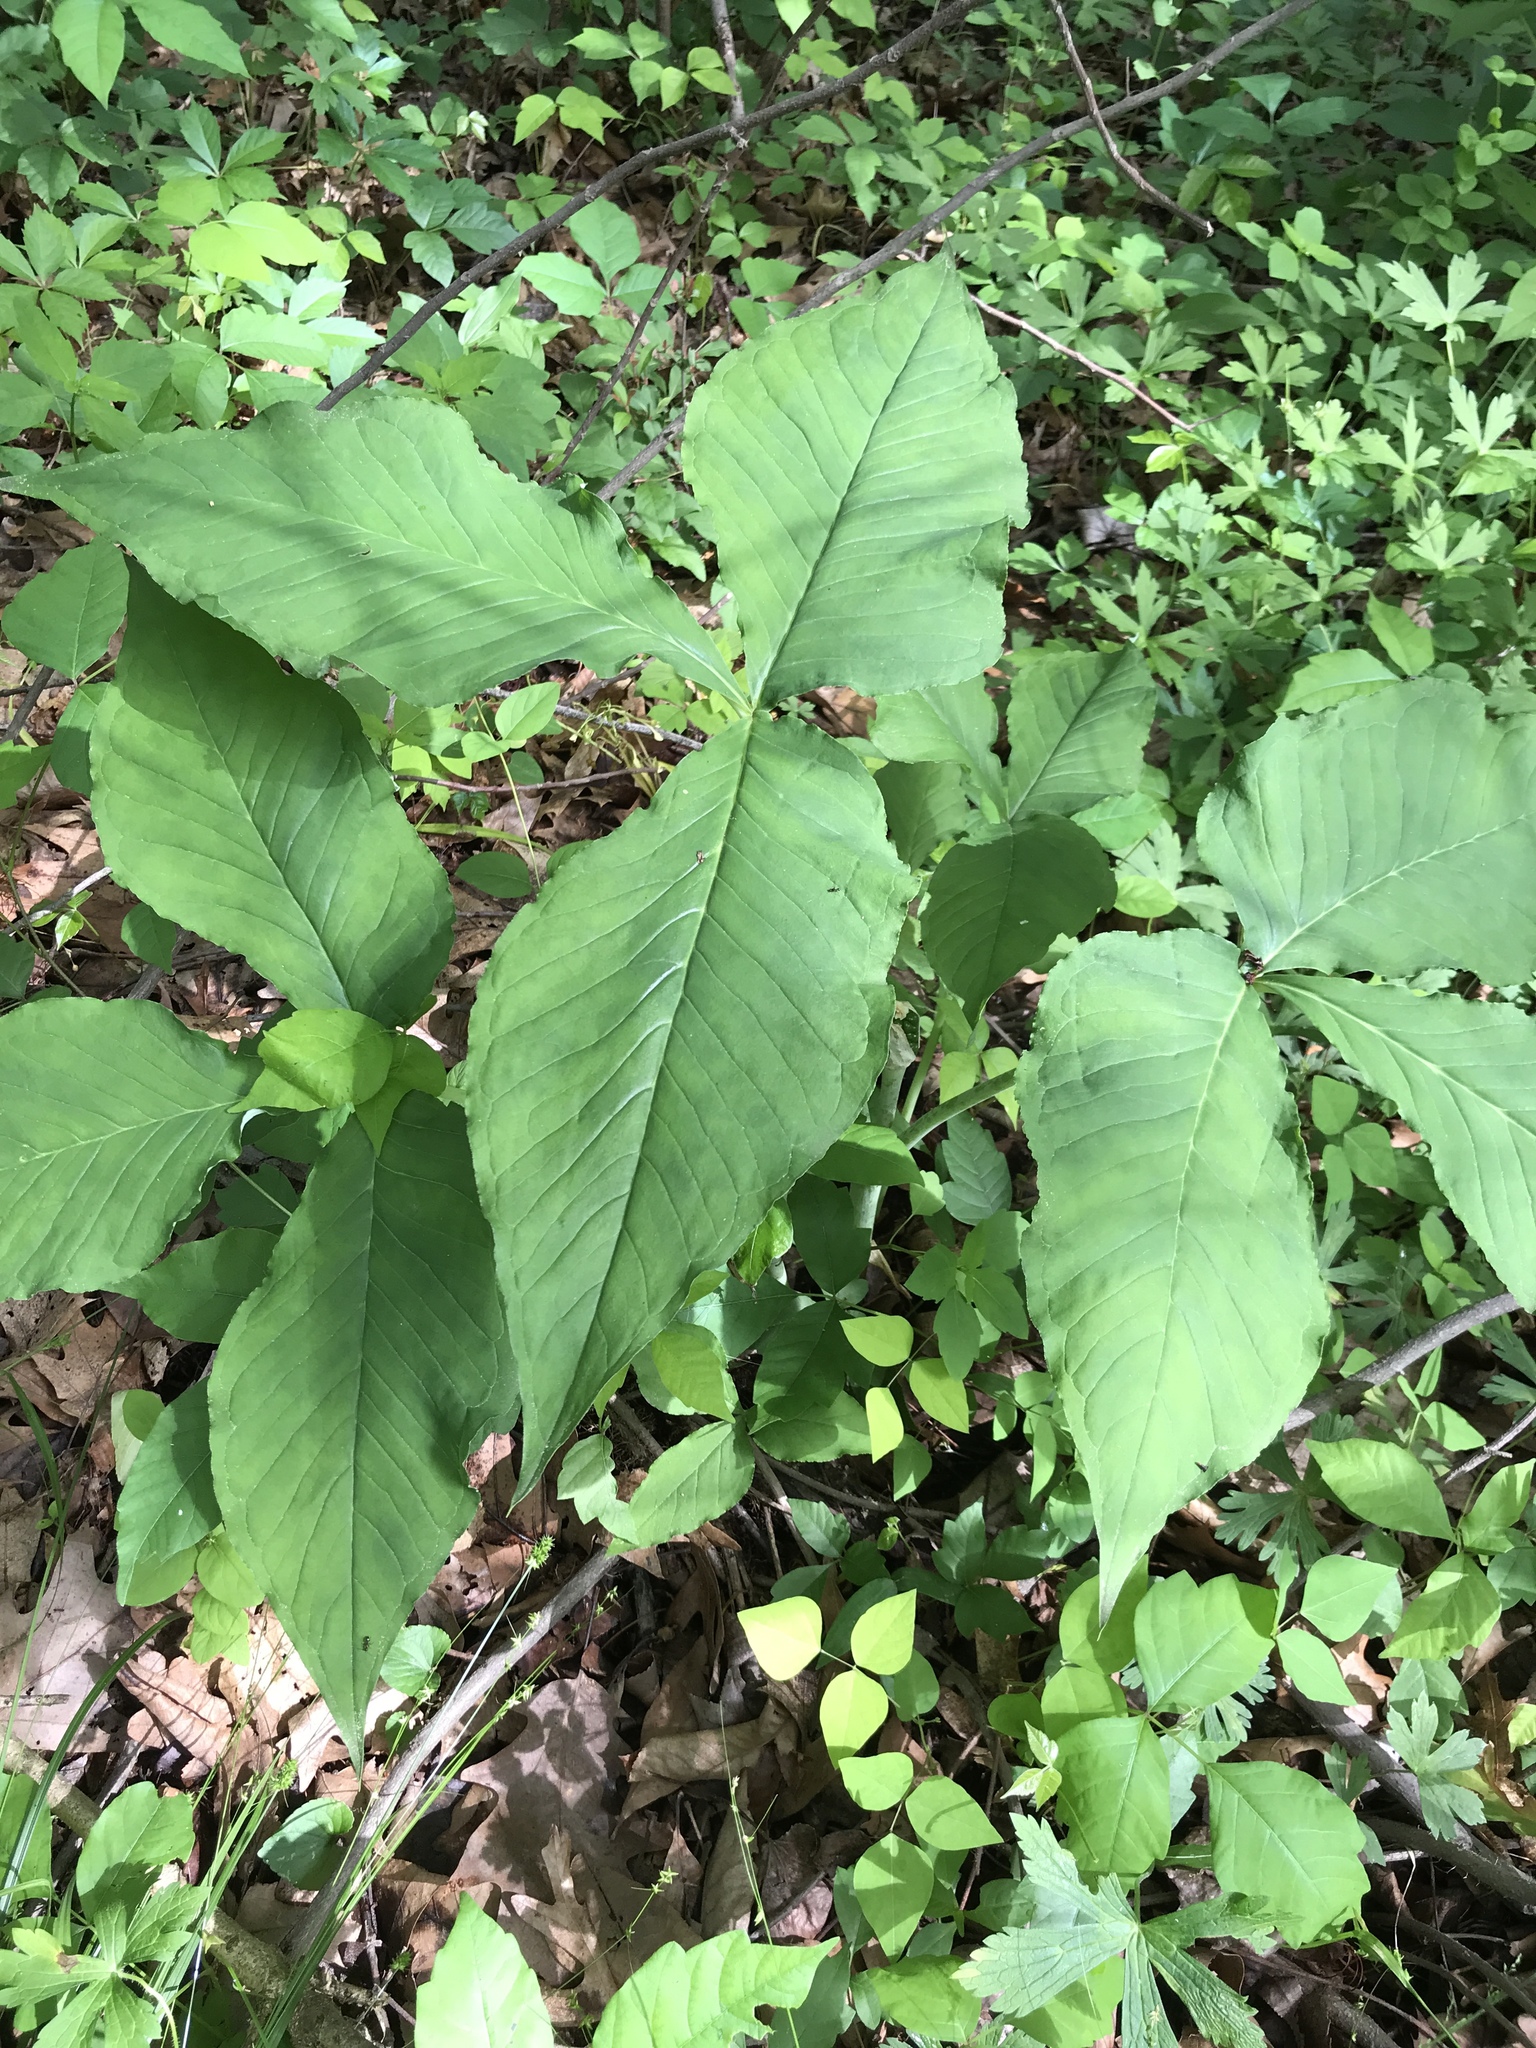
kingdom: Plantae
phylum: Tracheophyta
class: Liliopsida
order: Alismatales
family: Araceae
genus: Arisaema
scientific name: Arisaema triphyllum
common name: Jack-in-the-pulpit
